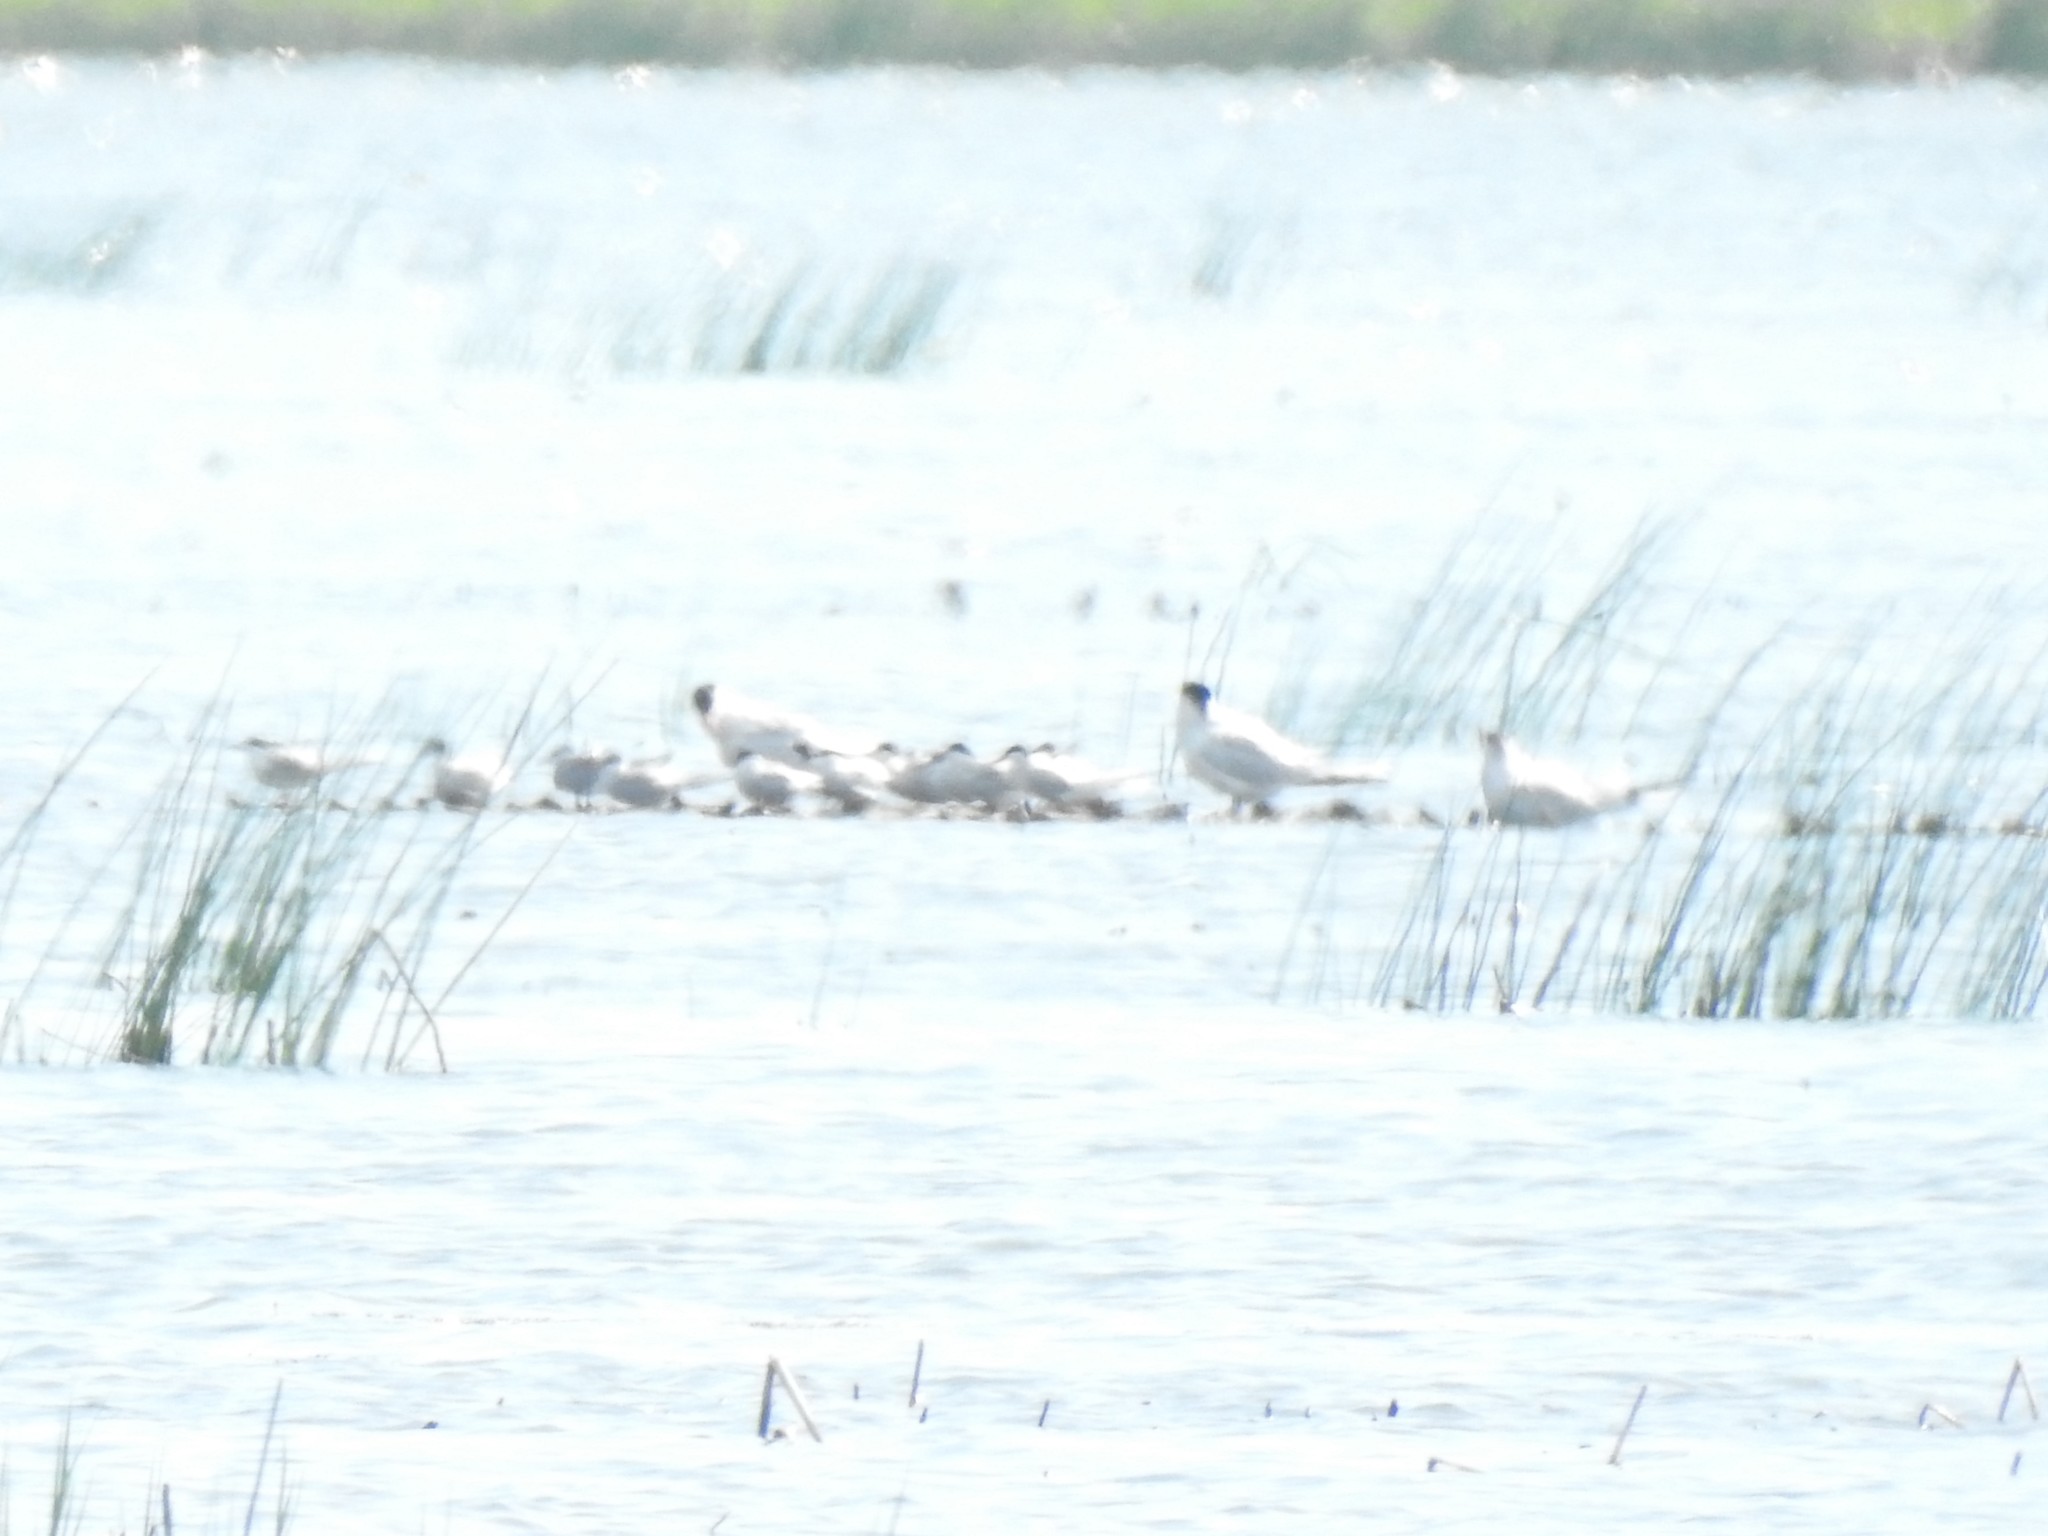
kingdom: Animalia
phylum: Chordata
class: Aves
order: Charadriiformes
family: Laridae
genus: Hydroprogne
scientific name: Hydroprogne caspia
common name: Caspian tern
